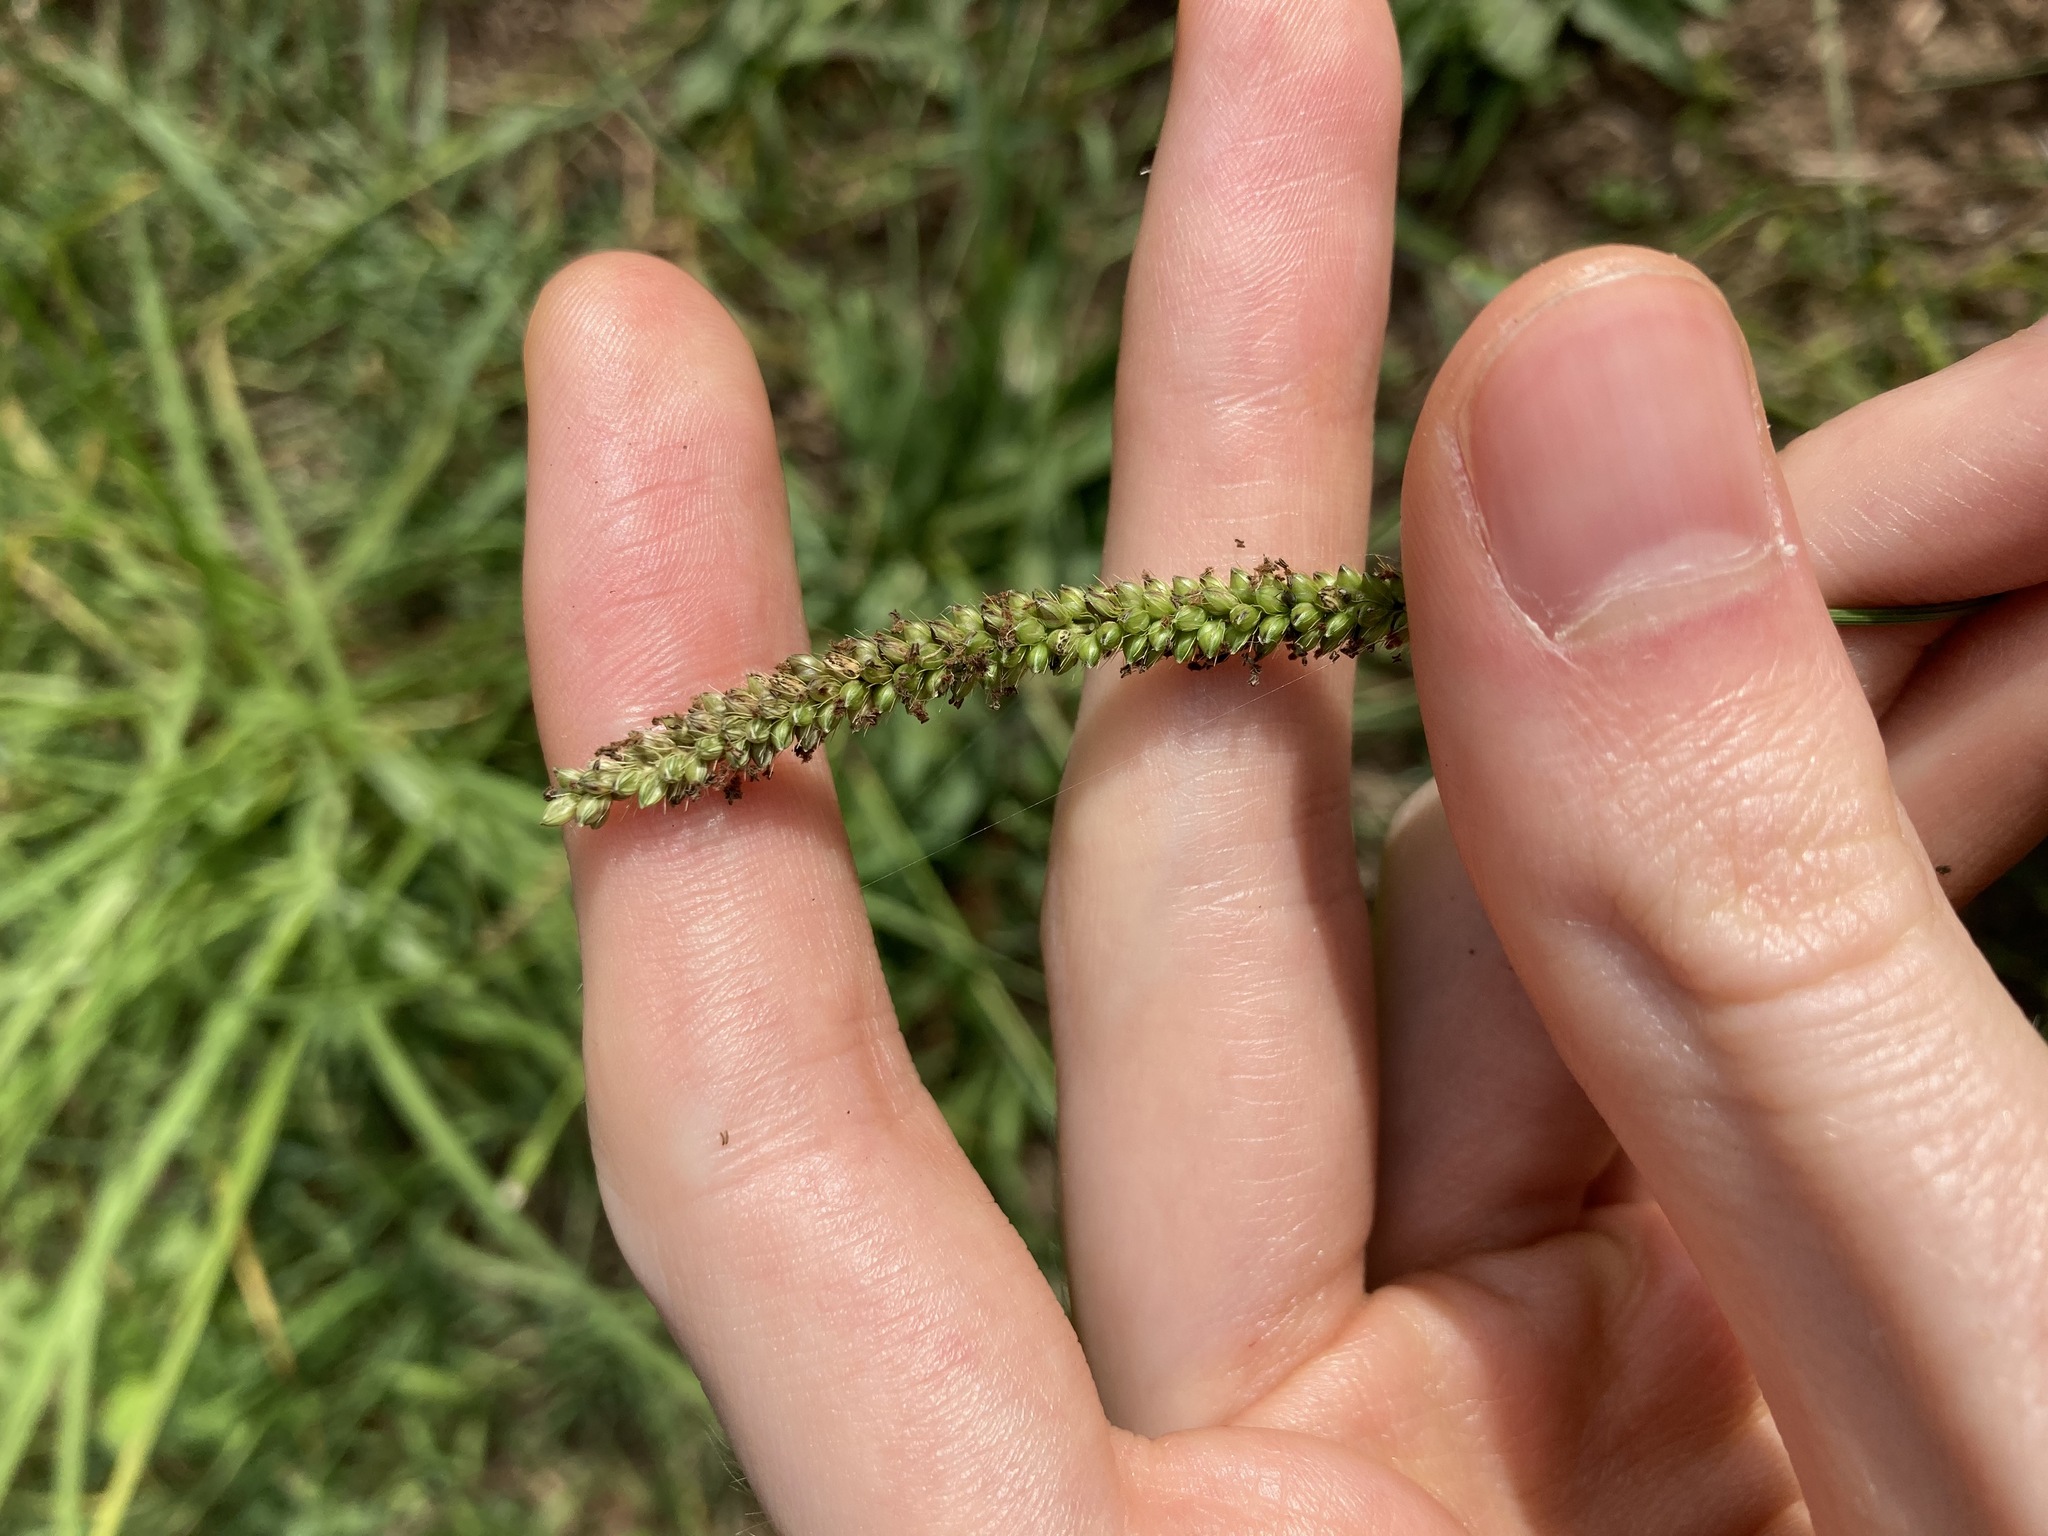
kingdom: Plantae
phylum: Tracheophyta
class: Liliopsida
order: Poales
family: Poaceae
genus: Setaria
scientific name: Setaria parviflora
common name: Knotroot bristle-grass
